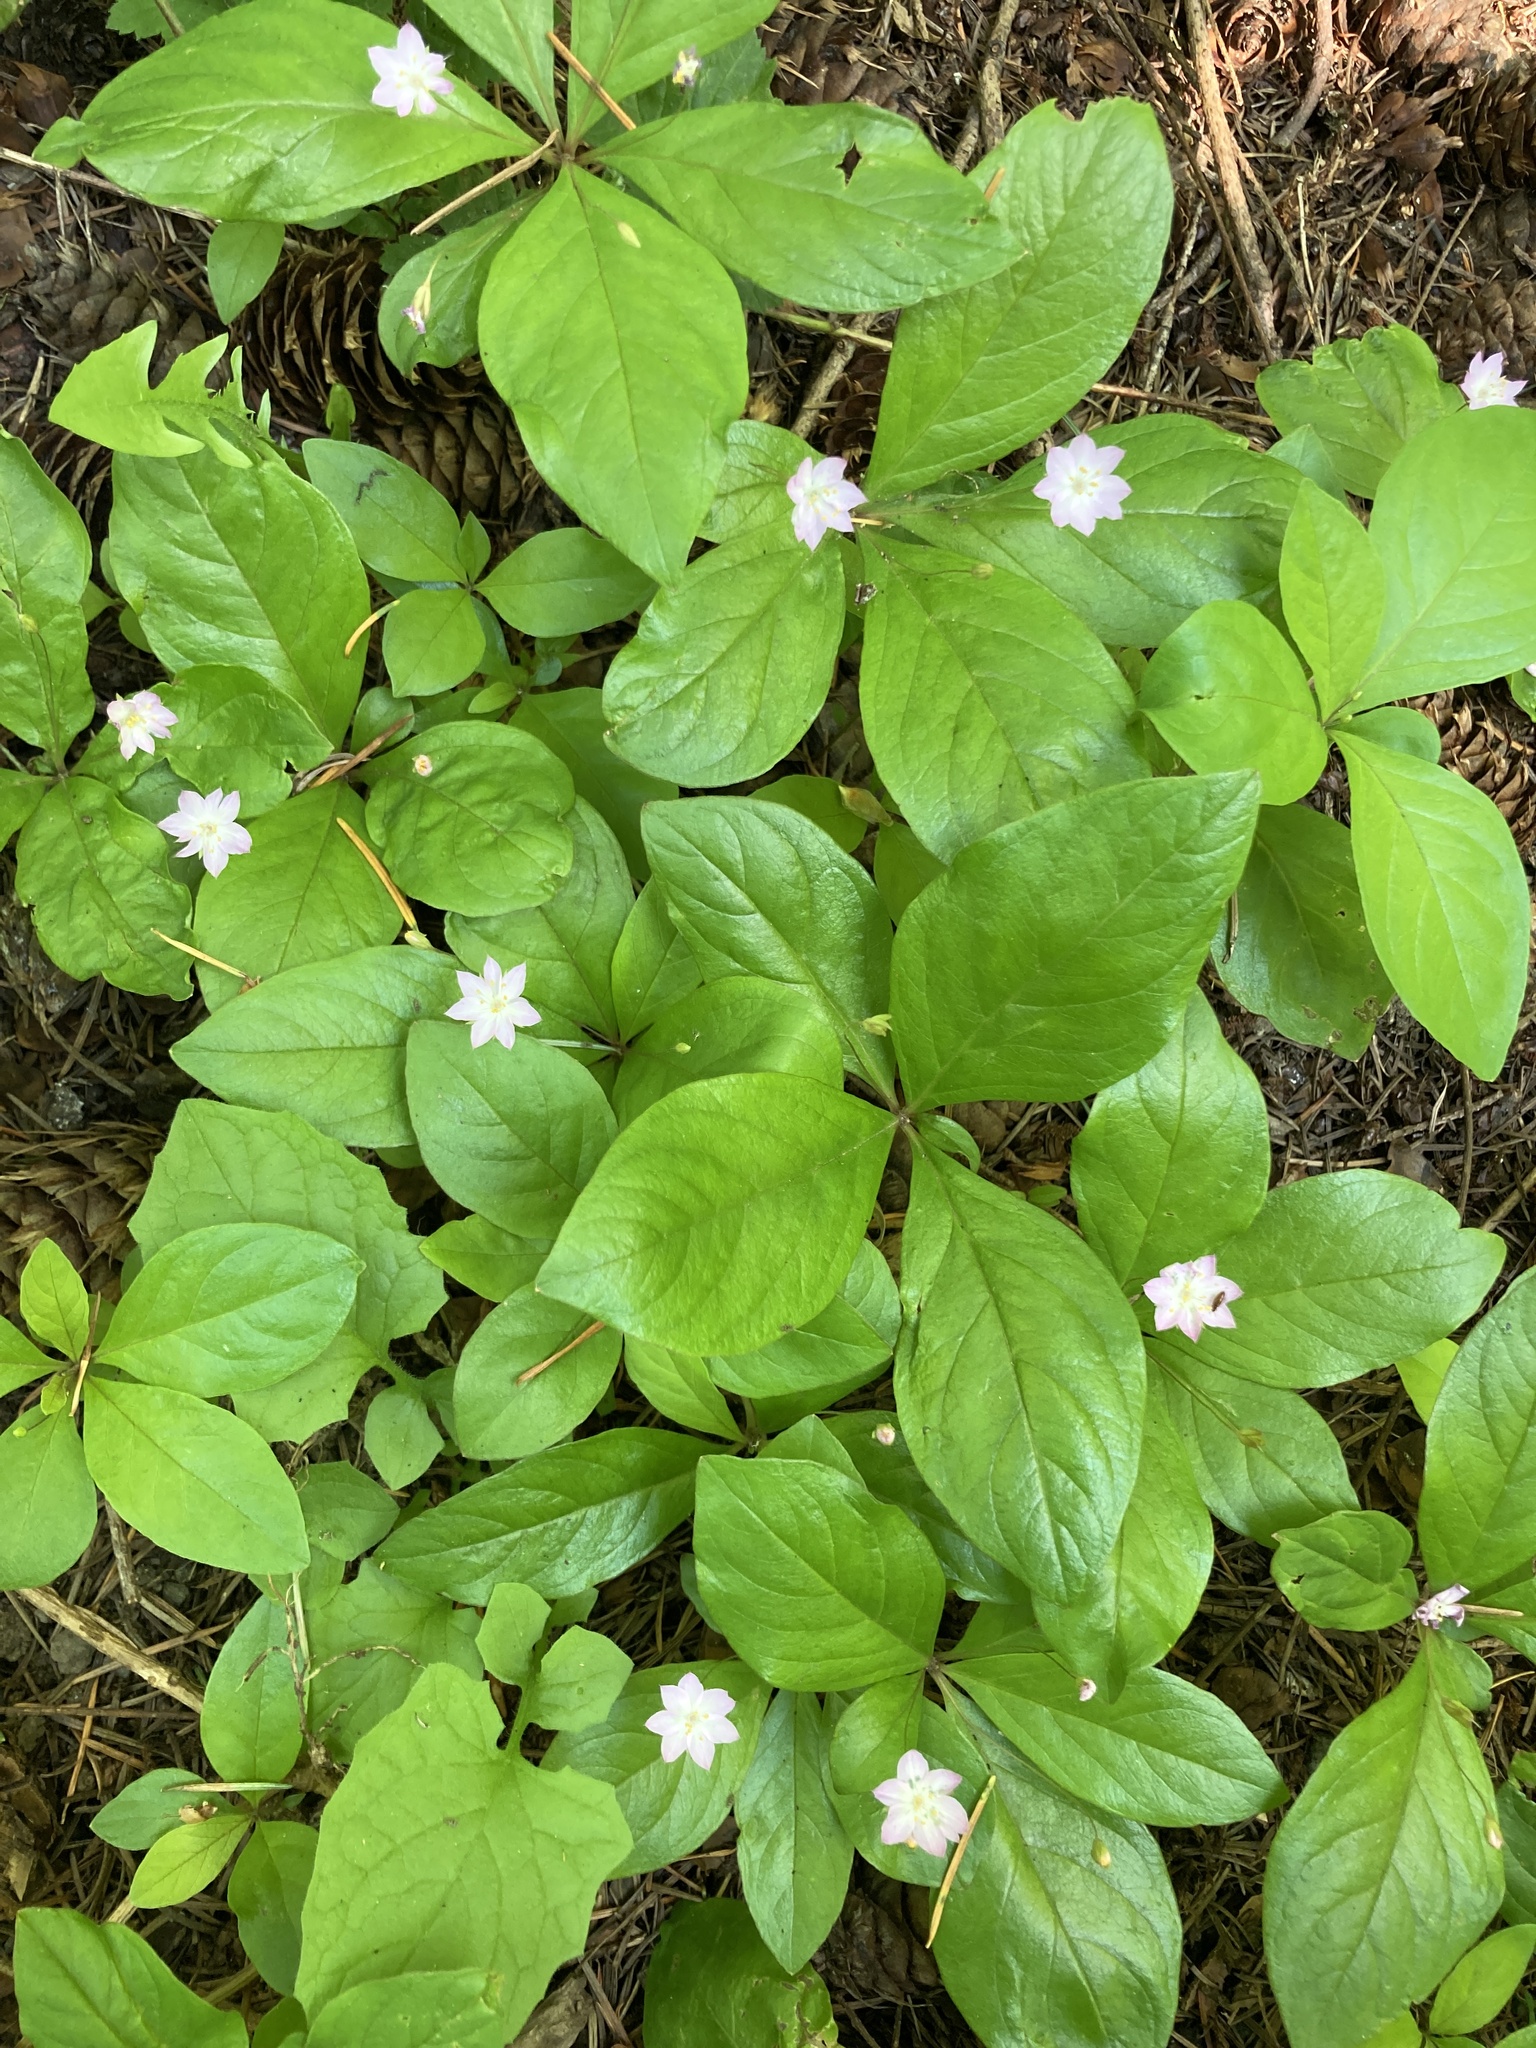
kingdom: Plantae
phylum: Tracheophyta
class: Magnoliopsida
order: Ericales
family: Primulaceae
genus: Lysimachia
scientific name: Lysimachia latifolia
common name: Pacific starflower
